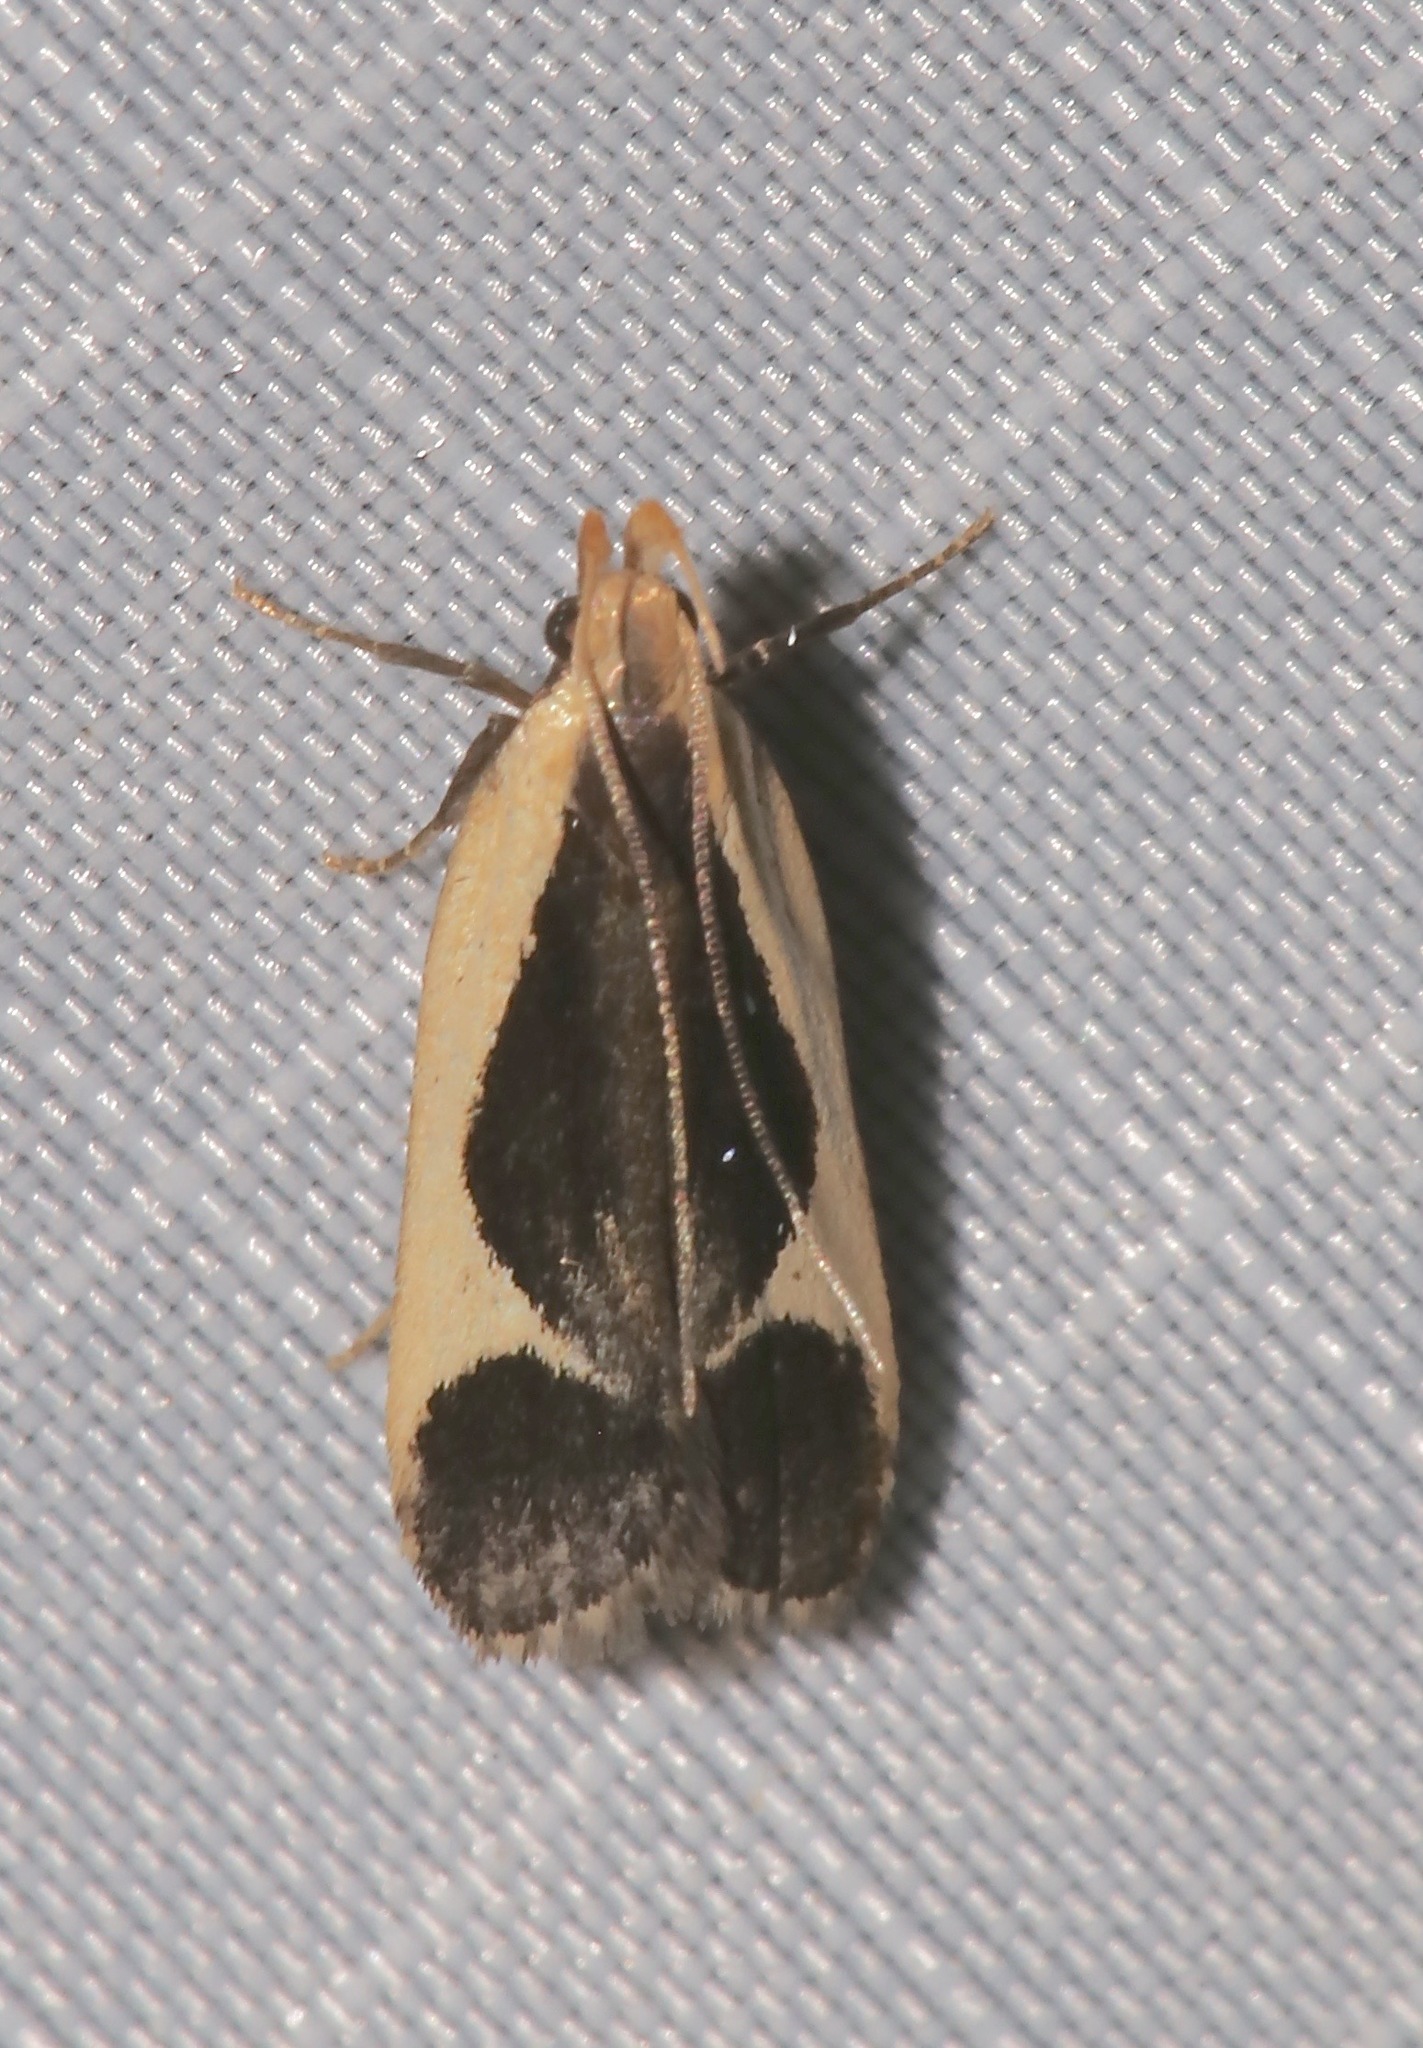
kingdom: Animalia
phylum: Arthropoda
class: Insecta
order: Lepidoptera
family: Gelechiidae
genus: Dichomeris
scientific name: Dichomeris flavocostella
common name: Cream-edged dichomeris moth
